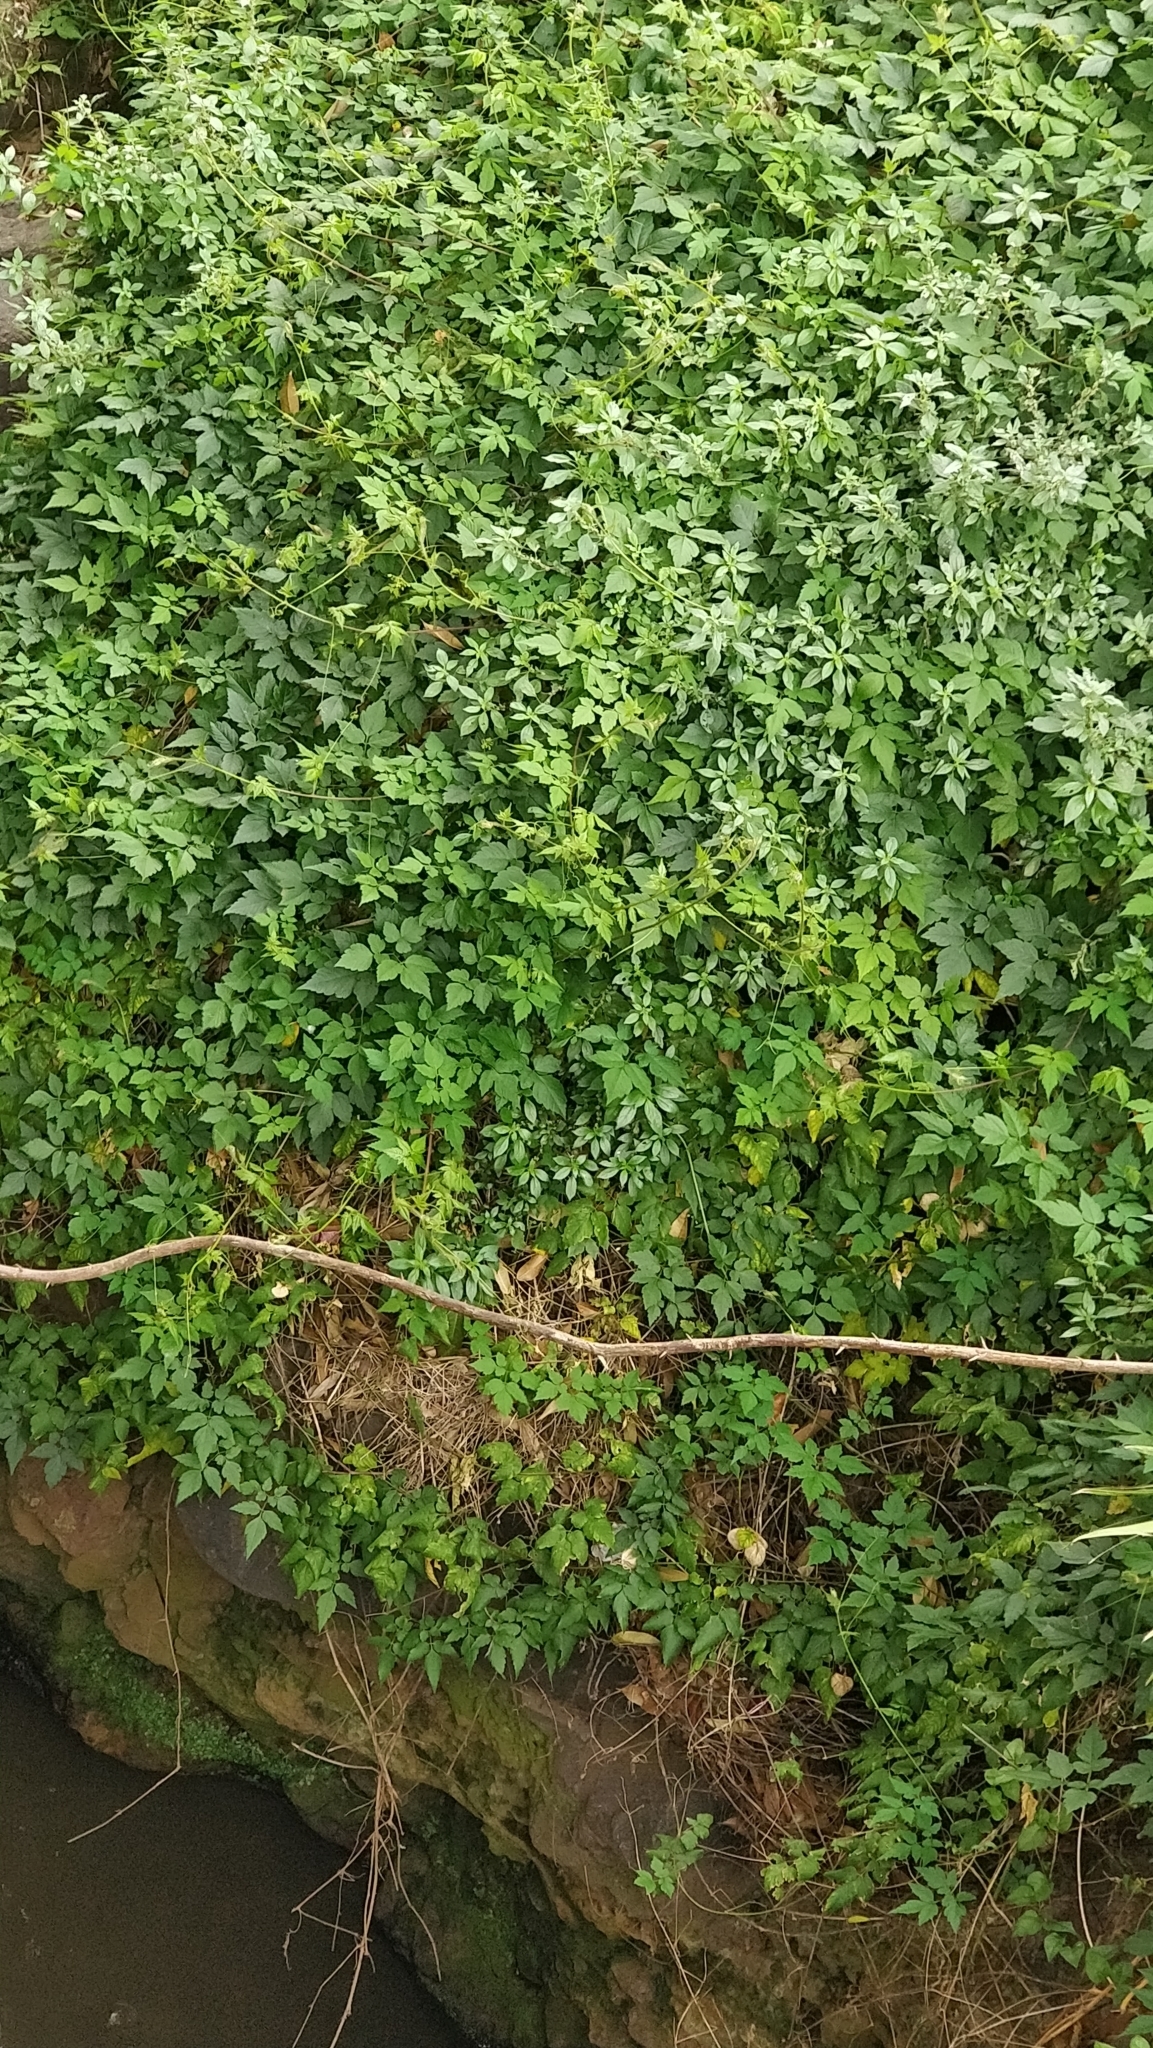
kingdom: Plantae
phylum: Tracheophyta
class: Magnoliopsida
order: Sapindales
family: Sapindaceae
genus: Cardiospermum
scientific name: Cardiospermum grandiflorum
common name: Balloon vine
